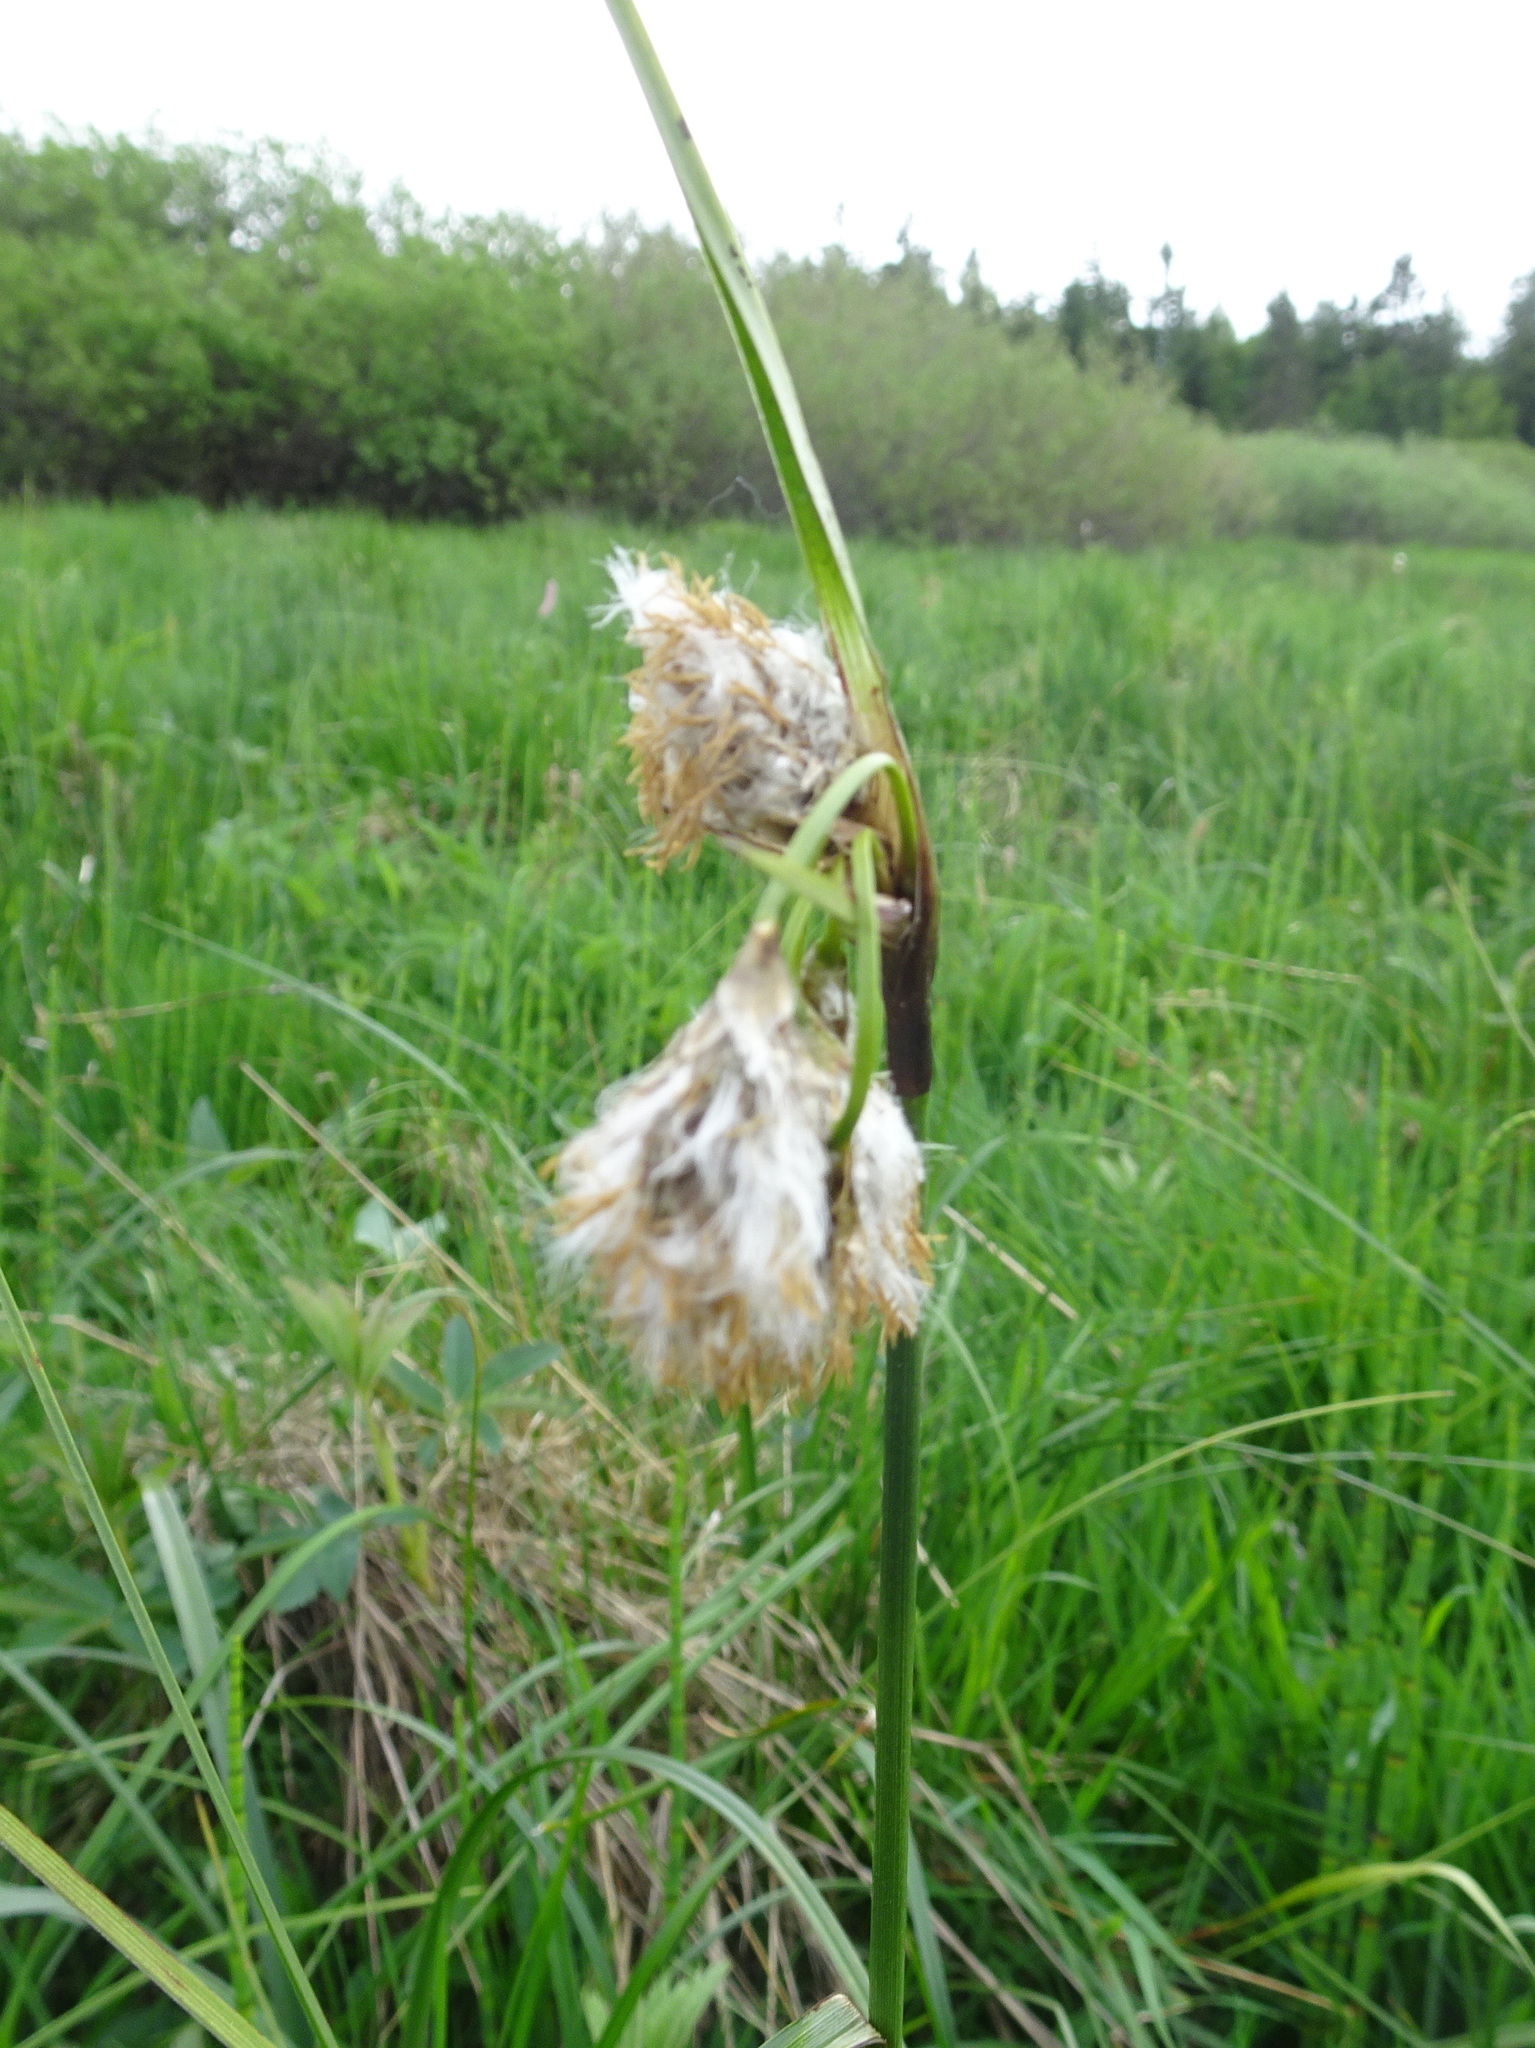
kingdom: Plantae
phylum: Tracheophyta
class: Liliopsida
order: Poales
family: Cyperaceae
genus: Eriophorum
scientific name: Eriophorum angustifolium
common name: Common cottongrass
